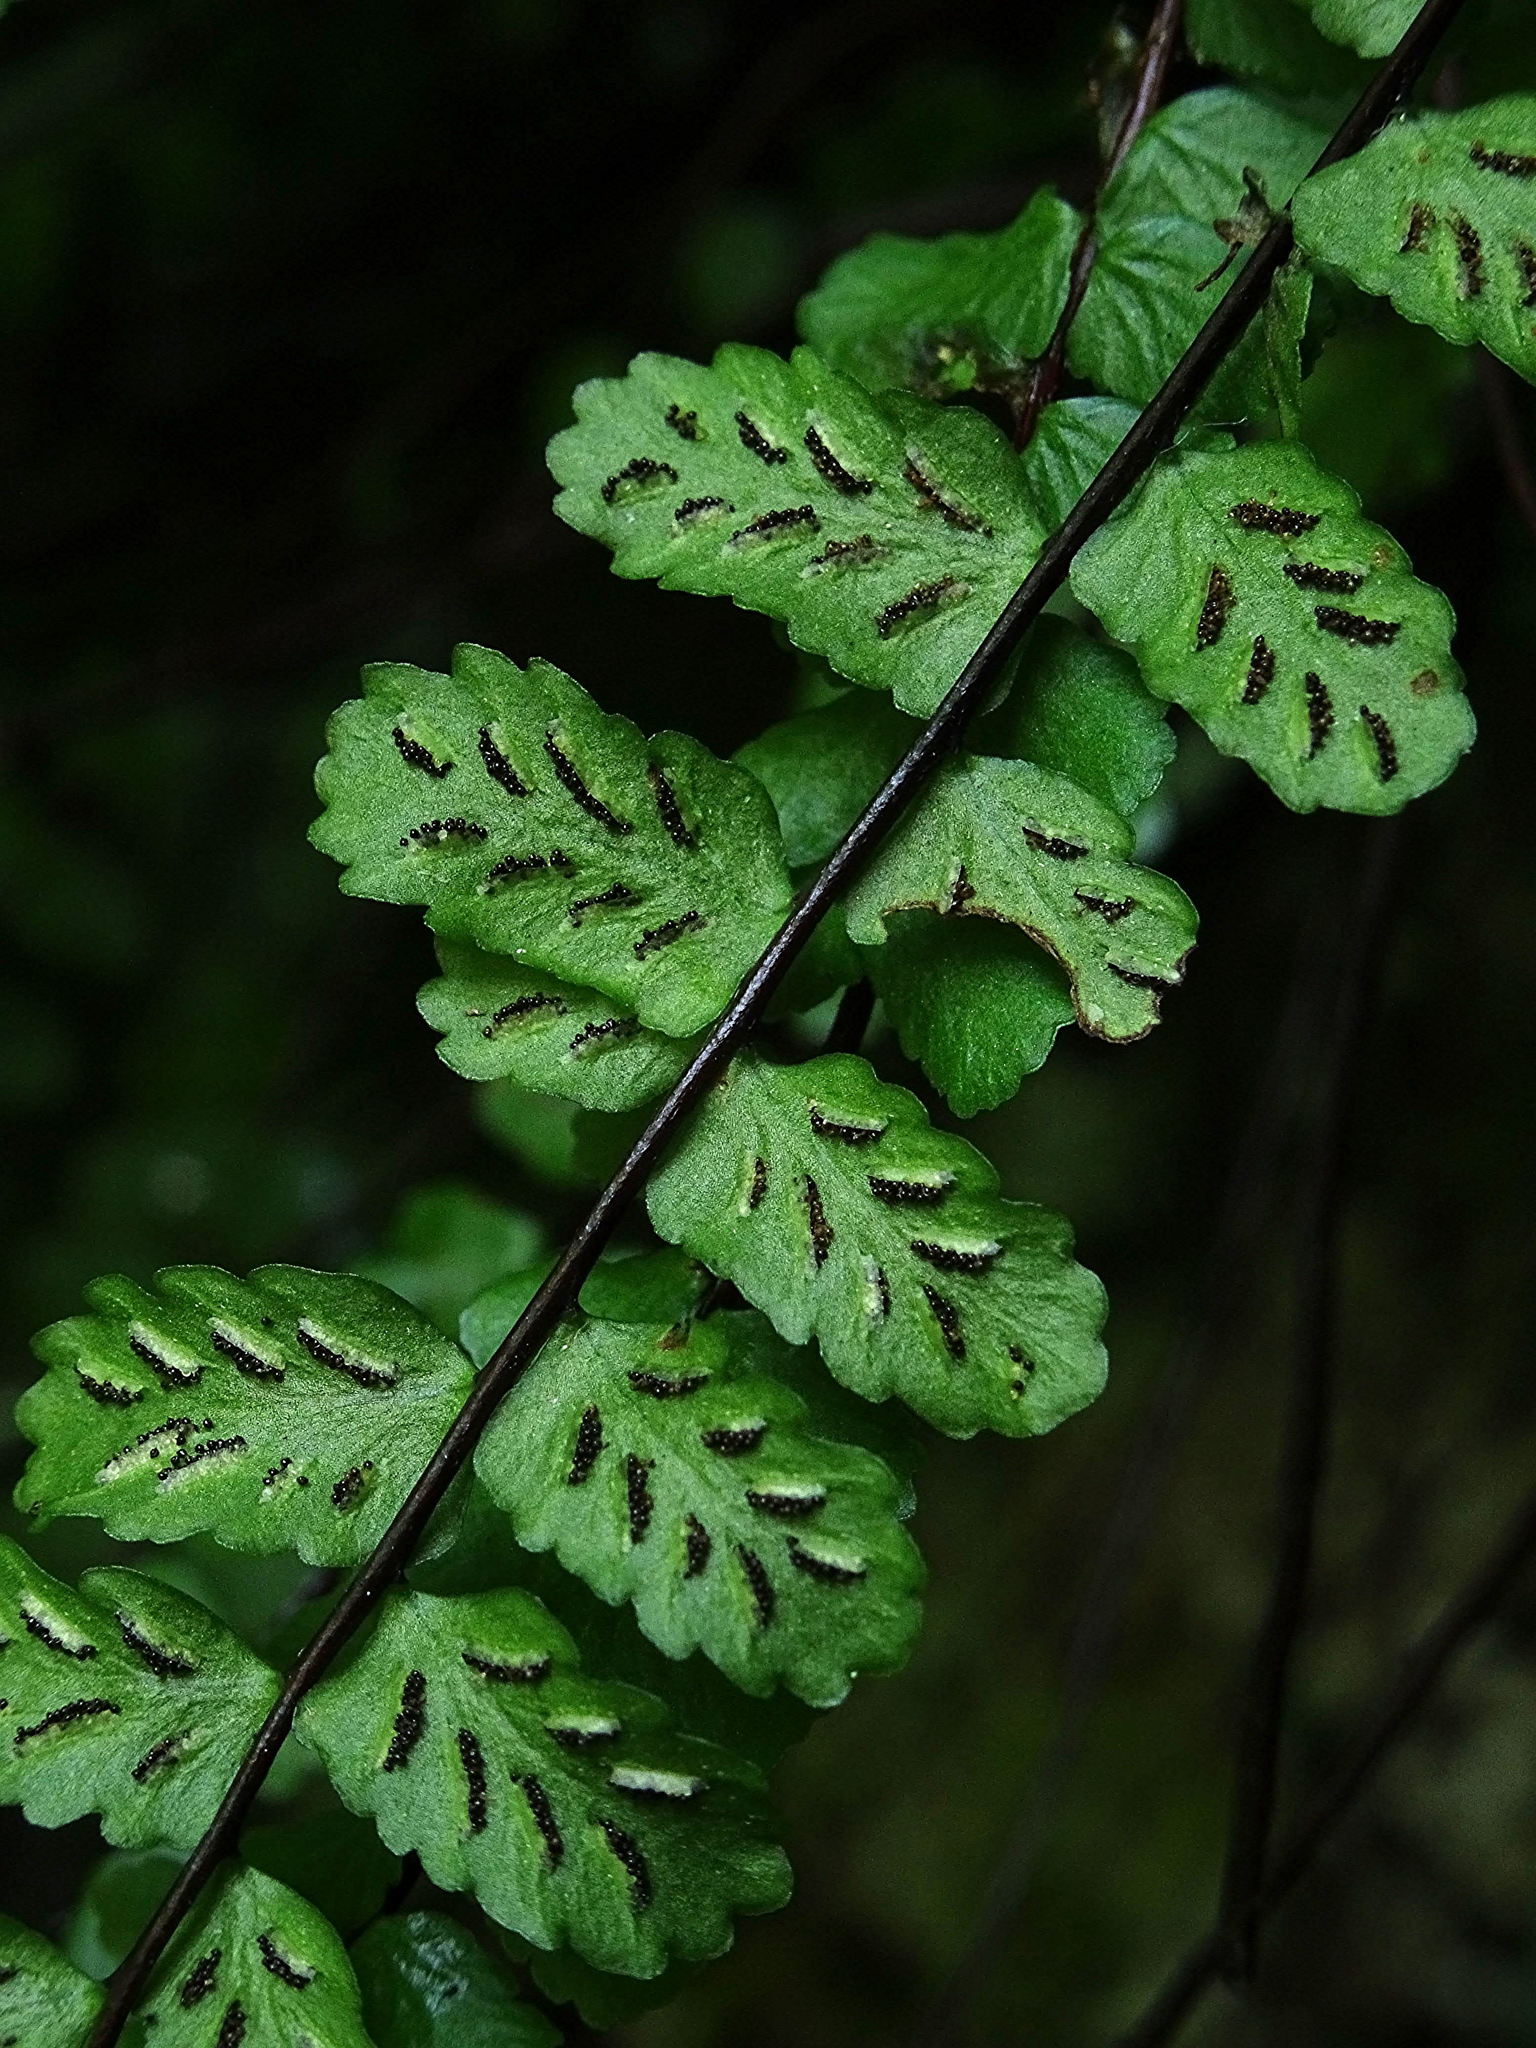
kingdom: Plantae
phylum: Tracheophyta
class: Polypodiopsida
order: Polypodiales
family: Aspleniaceae
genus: Asplenium
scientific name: Asplenium trichomanes
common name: Maidenhair spleenwort
